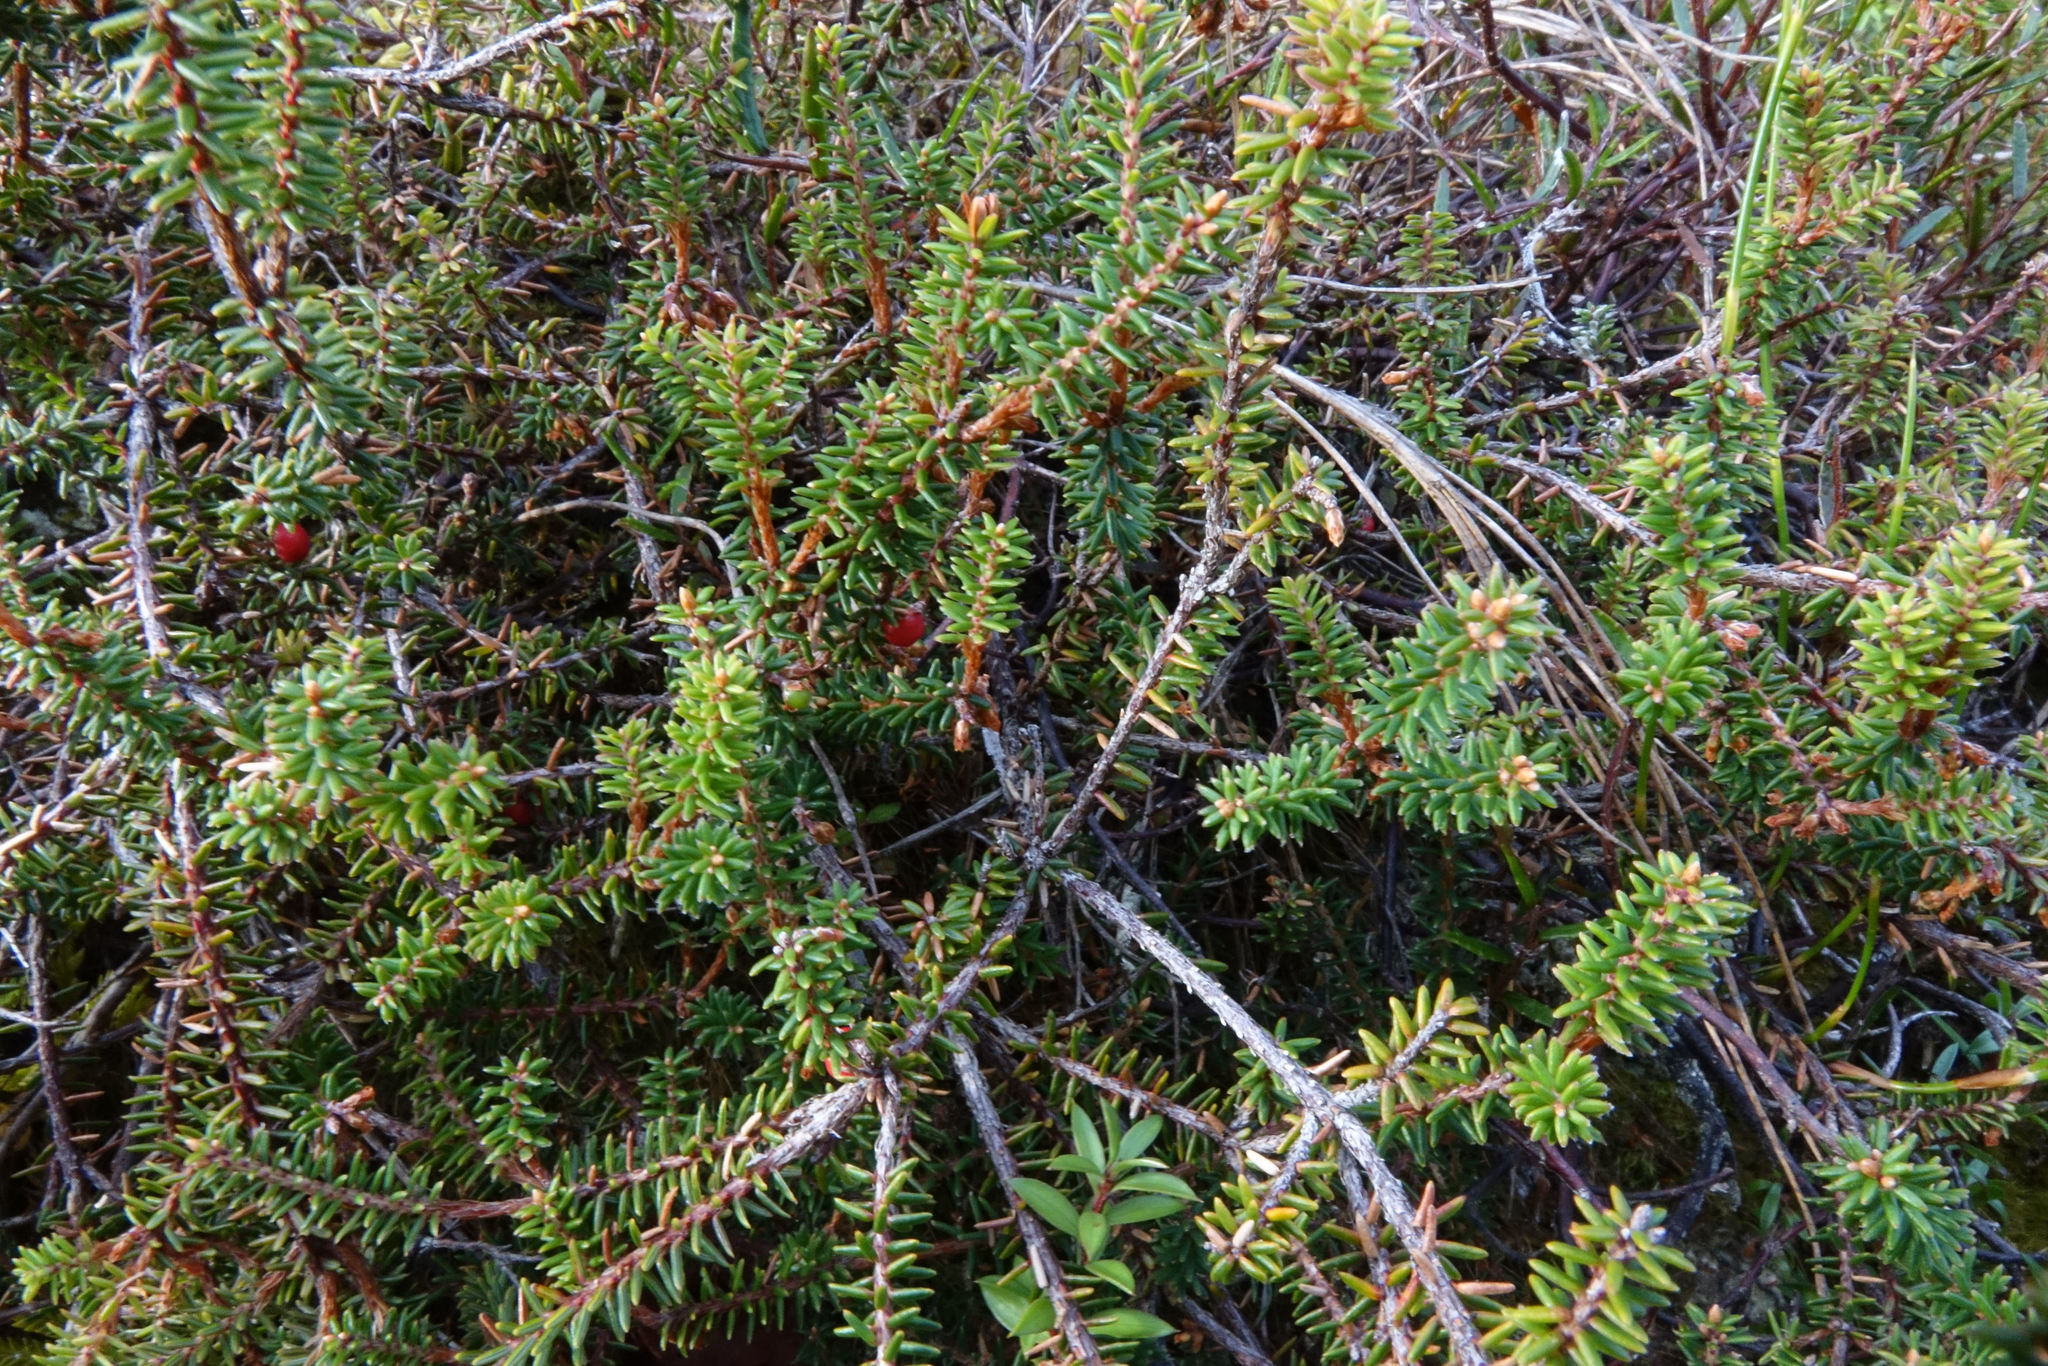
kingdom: Plantae
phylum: Tracheophyta
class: Magnoliopsida
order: Ericales
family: Ericaceae
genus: Androstoma
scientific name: Androstoma empetrifolia
